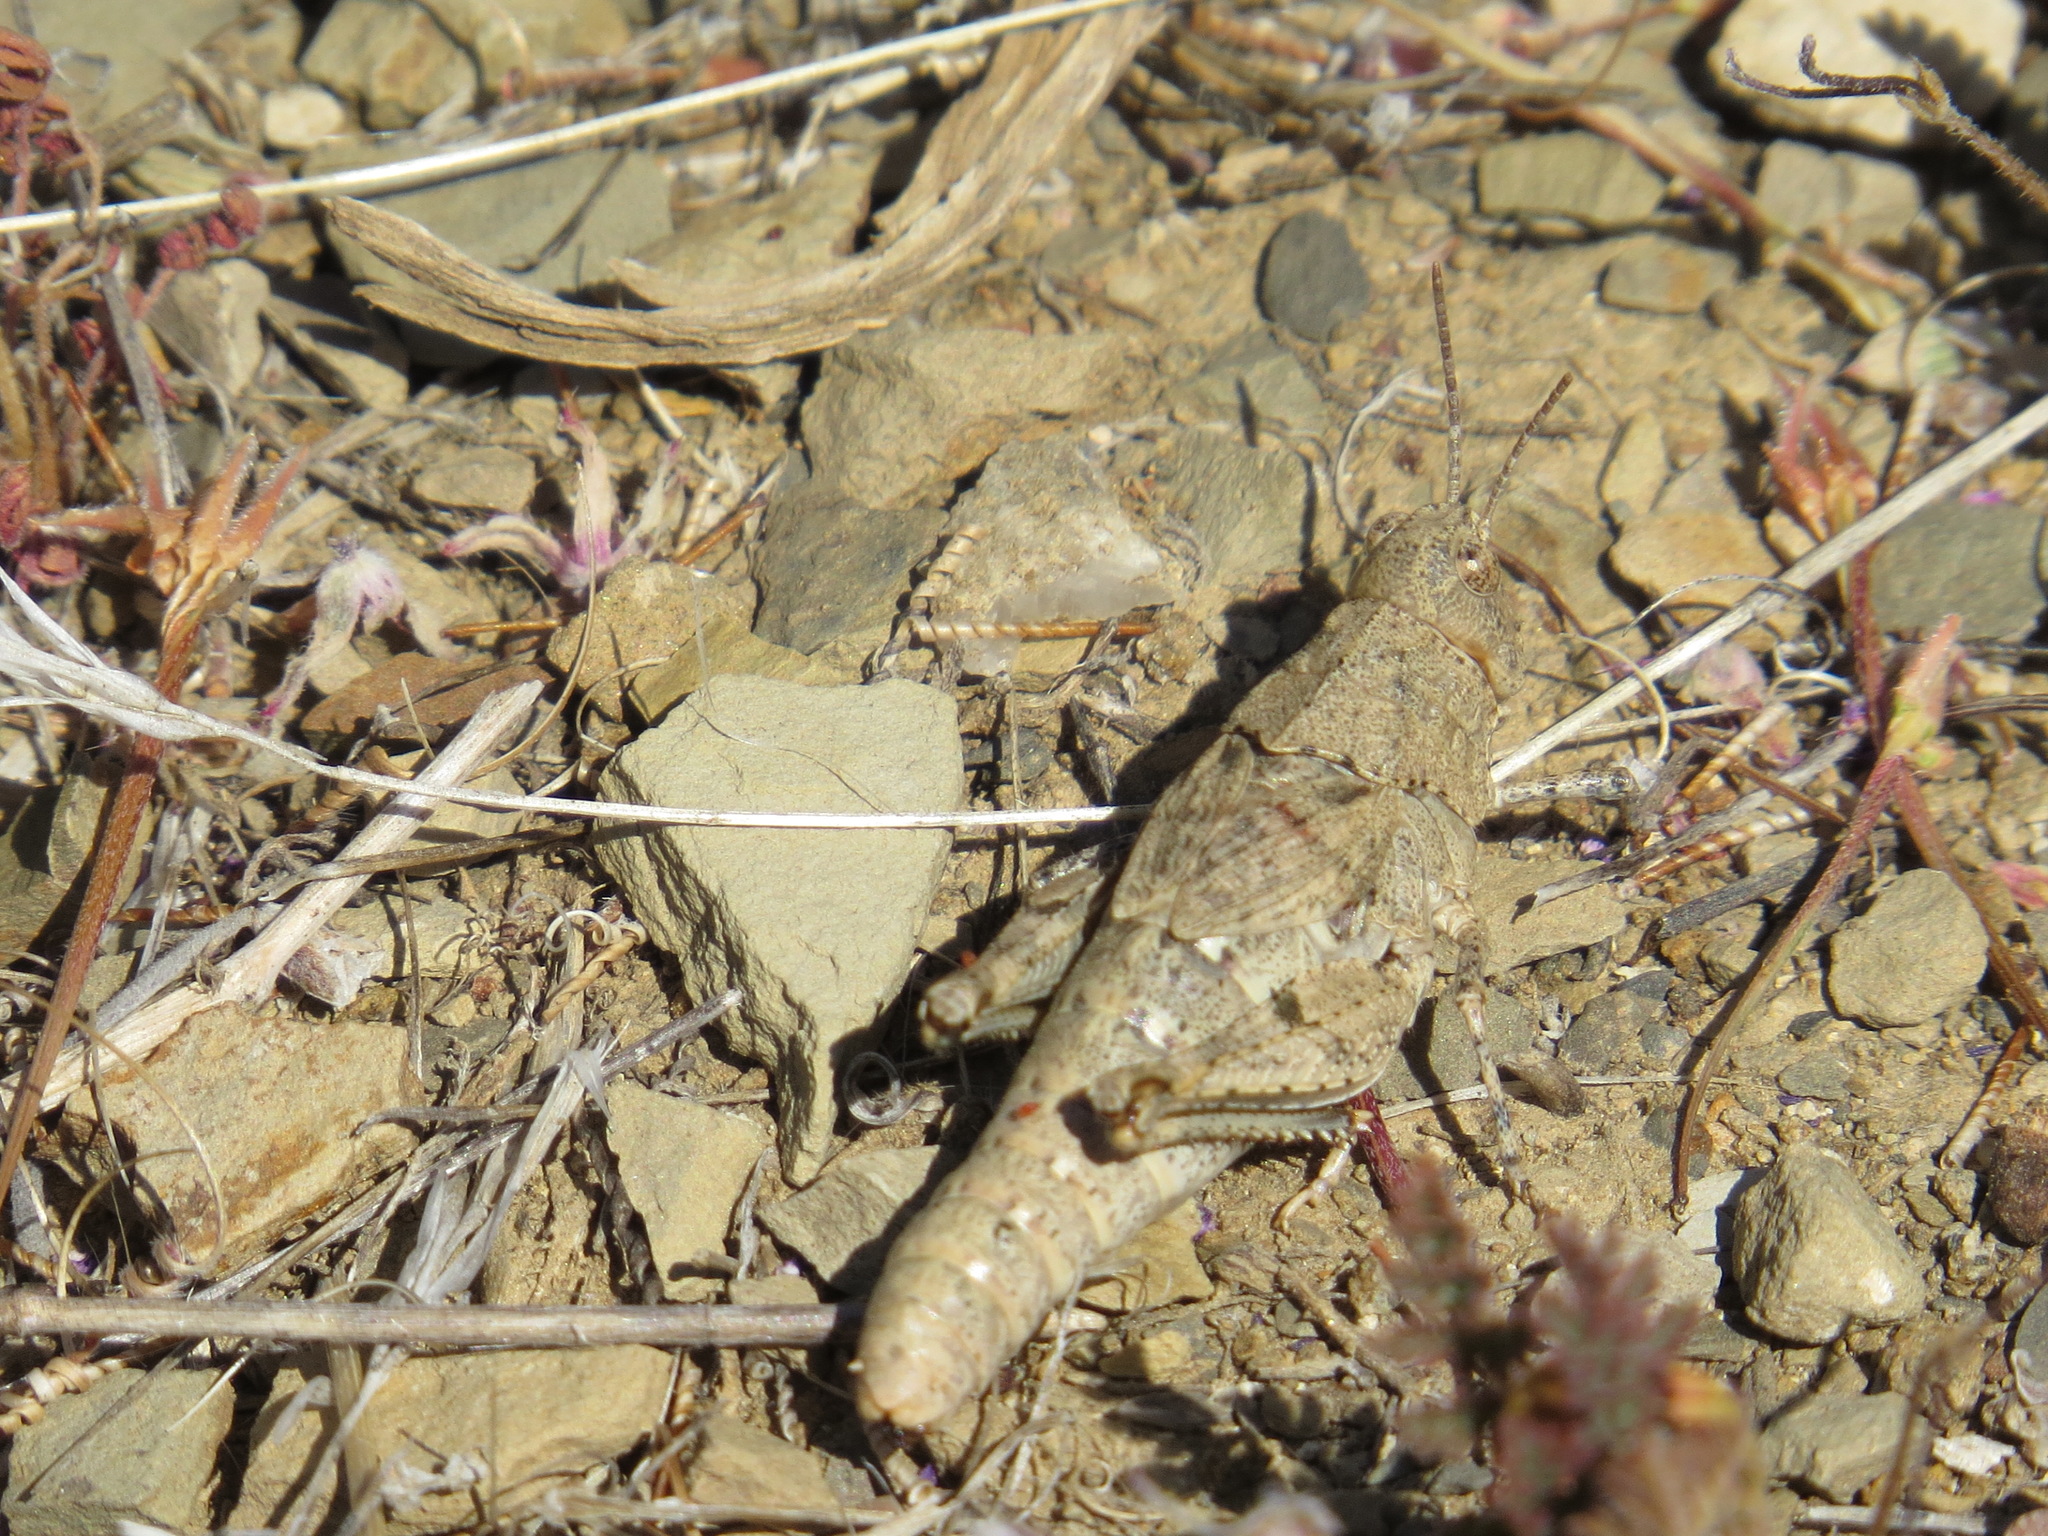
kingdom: Animalia
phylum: Arthropoda
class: Insecta
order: Orthoptera
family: Acrididae
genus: Esselenia
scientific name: Esselenia vanduzeei
